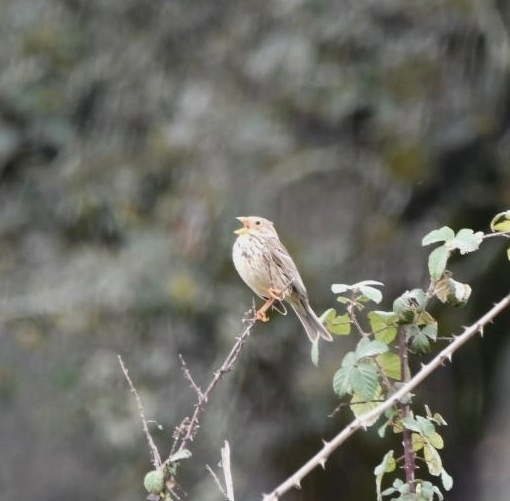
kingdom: Animalia
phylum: Chordata
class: Aves
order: Passeriformes
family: Emberizidae
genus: Emberiza
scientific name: Emberiza calandra
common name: Corn bunting
